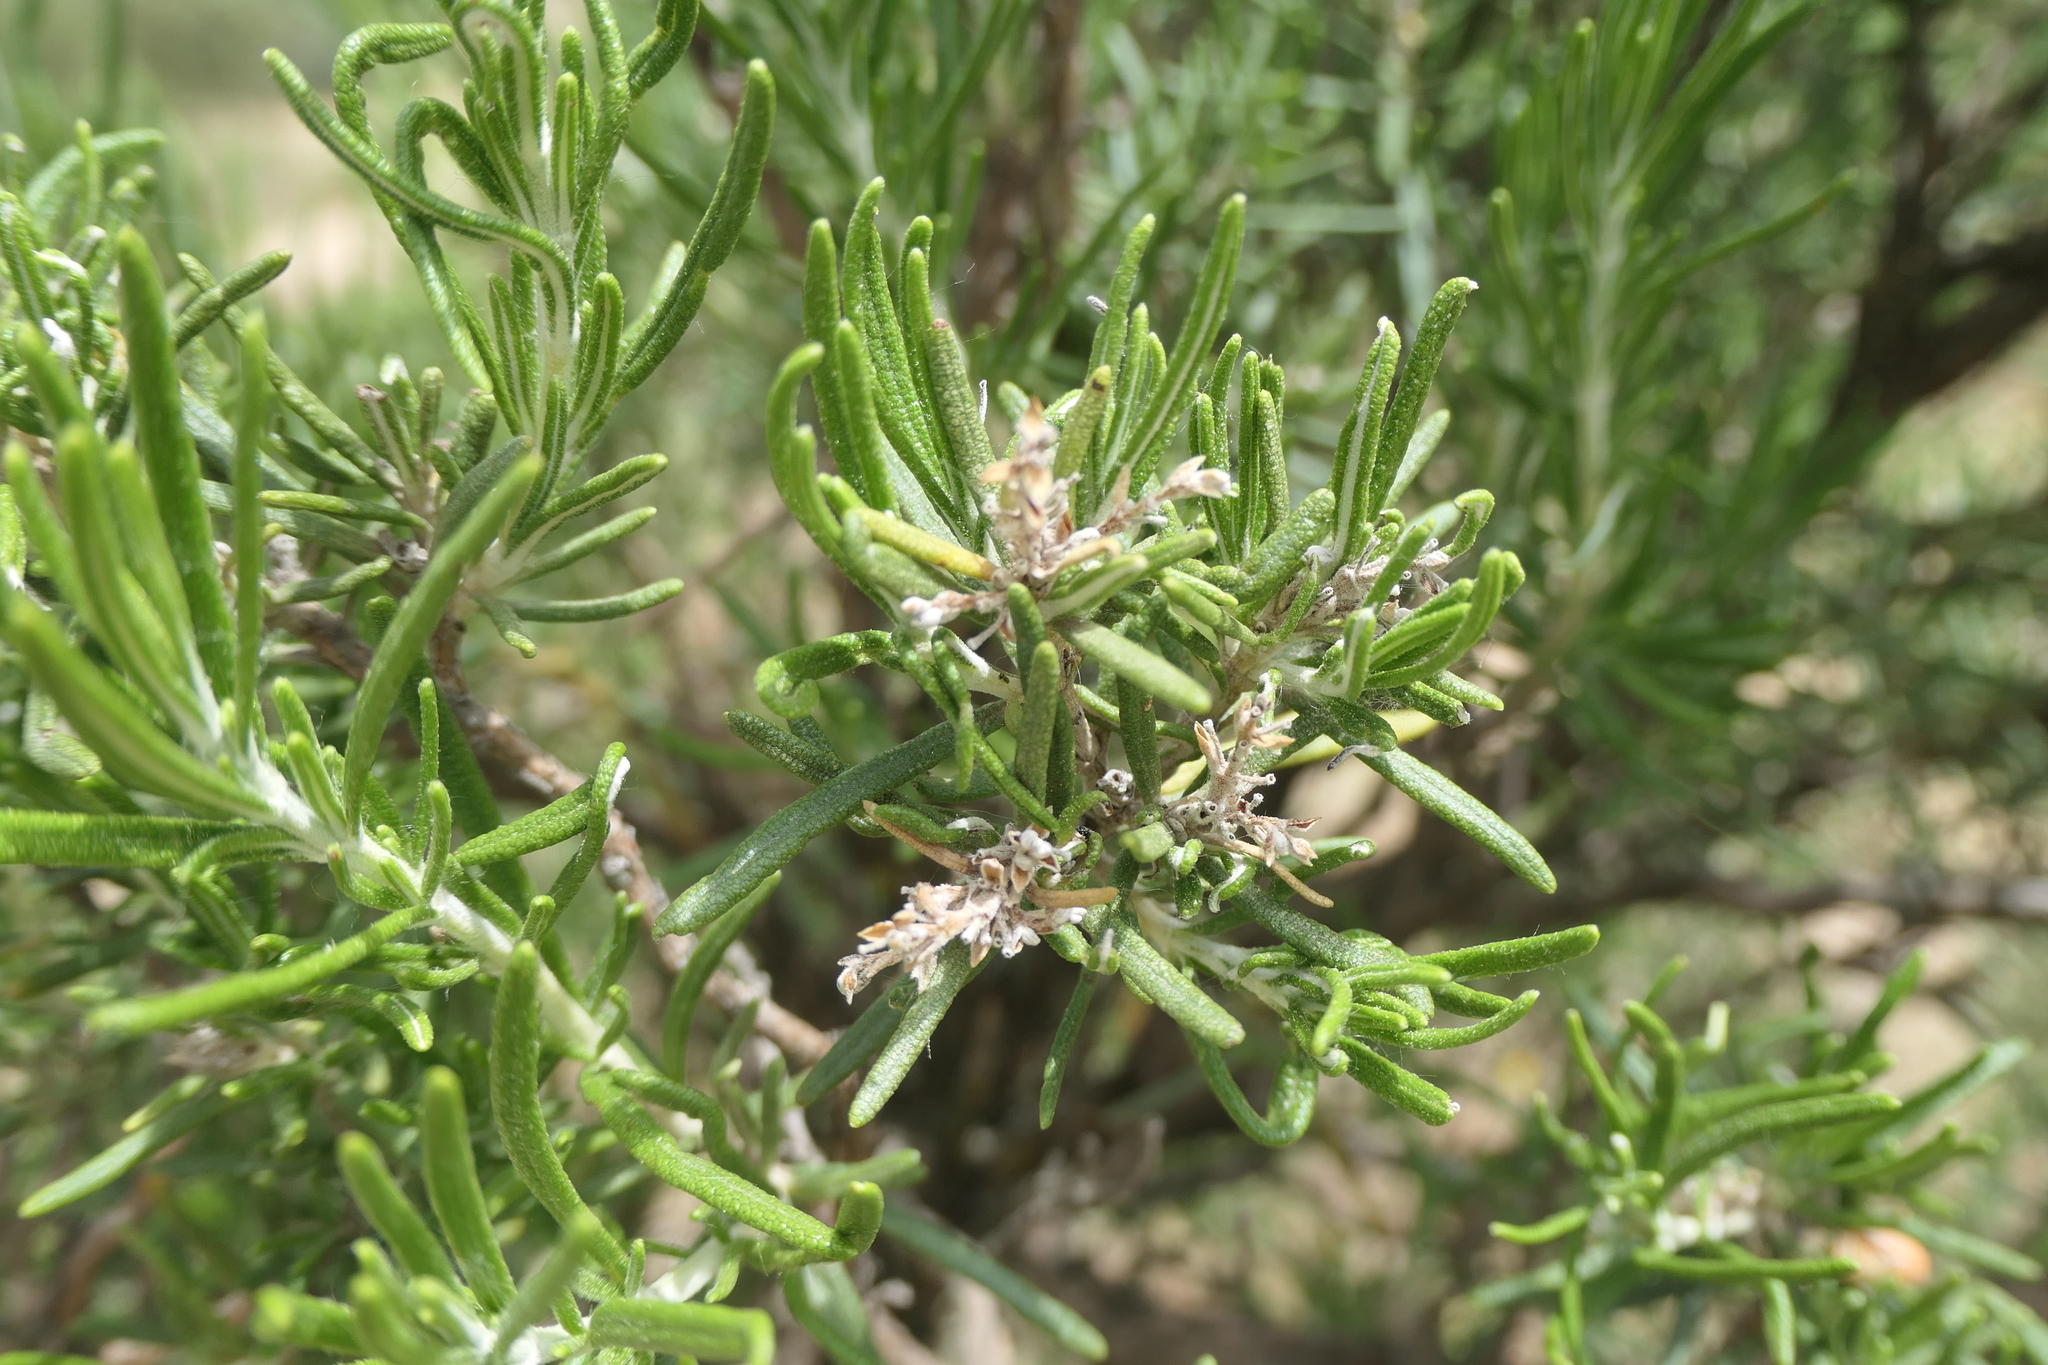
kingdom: Plantae
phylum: Tracheophyta
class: Magnoliopsida
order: Lamiales
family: Lamiaceae
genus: Salvia
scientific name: Salvia rosmarinus
